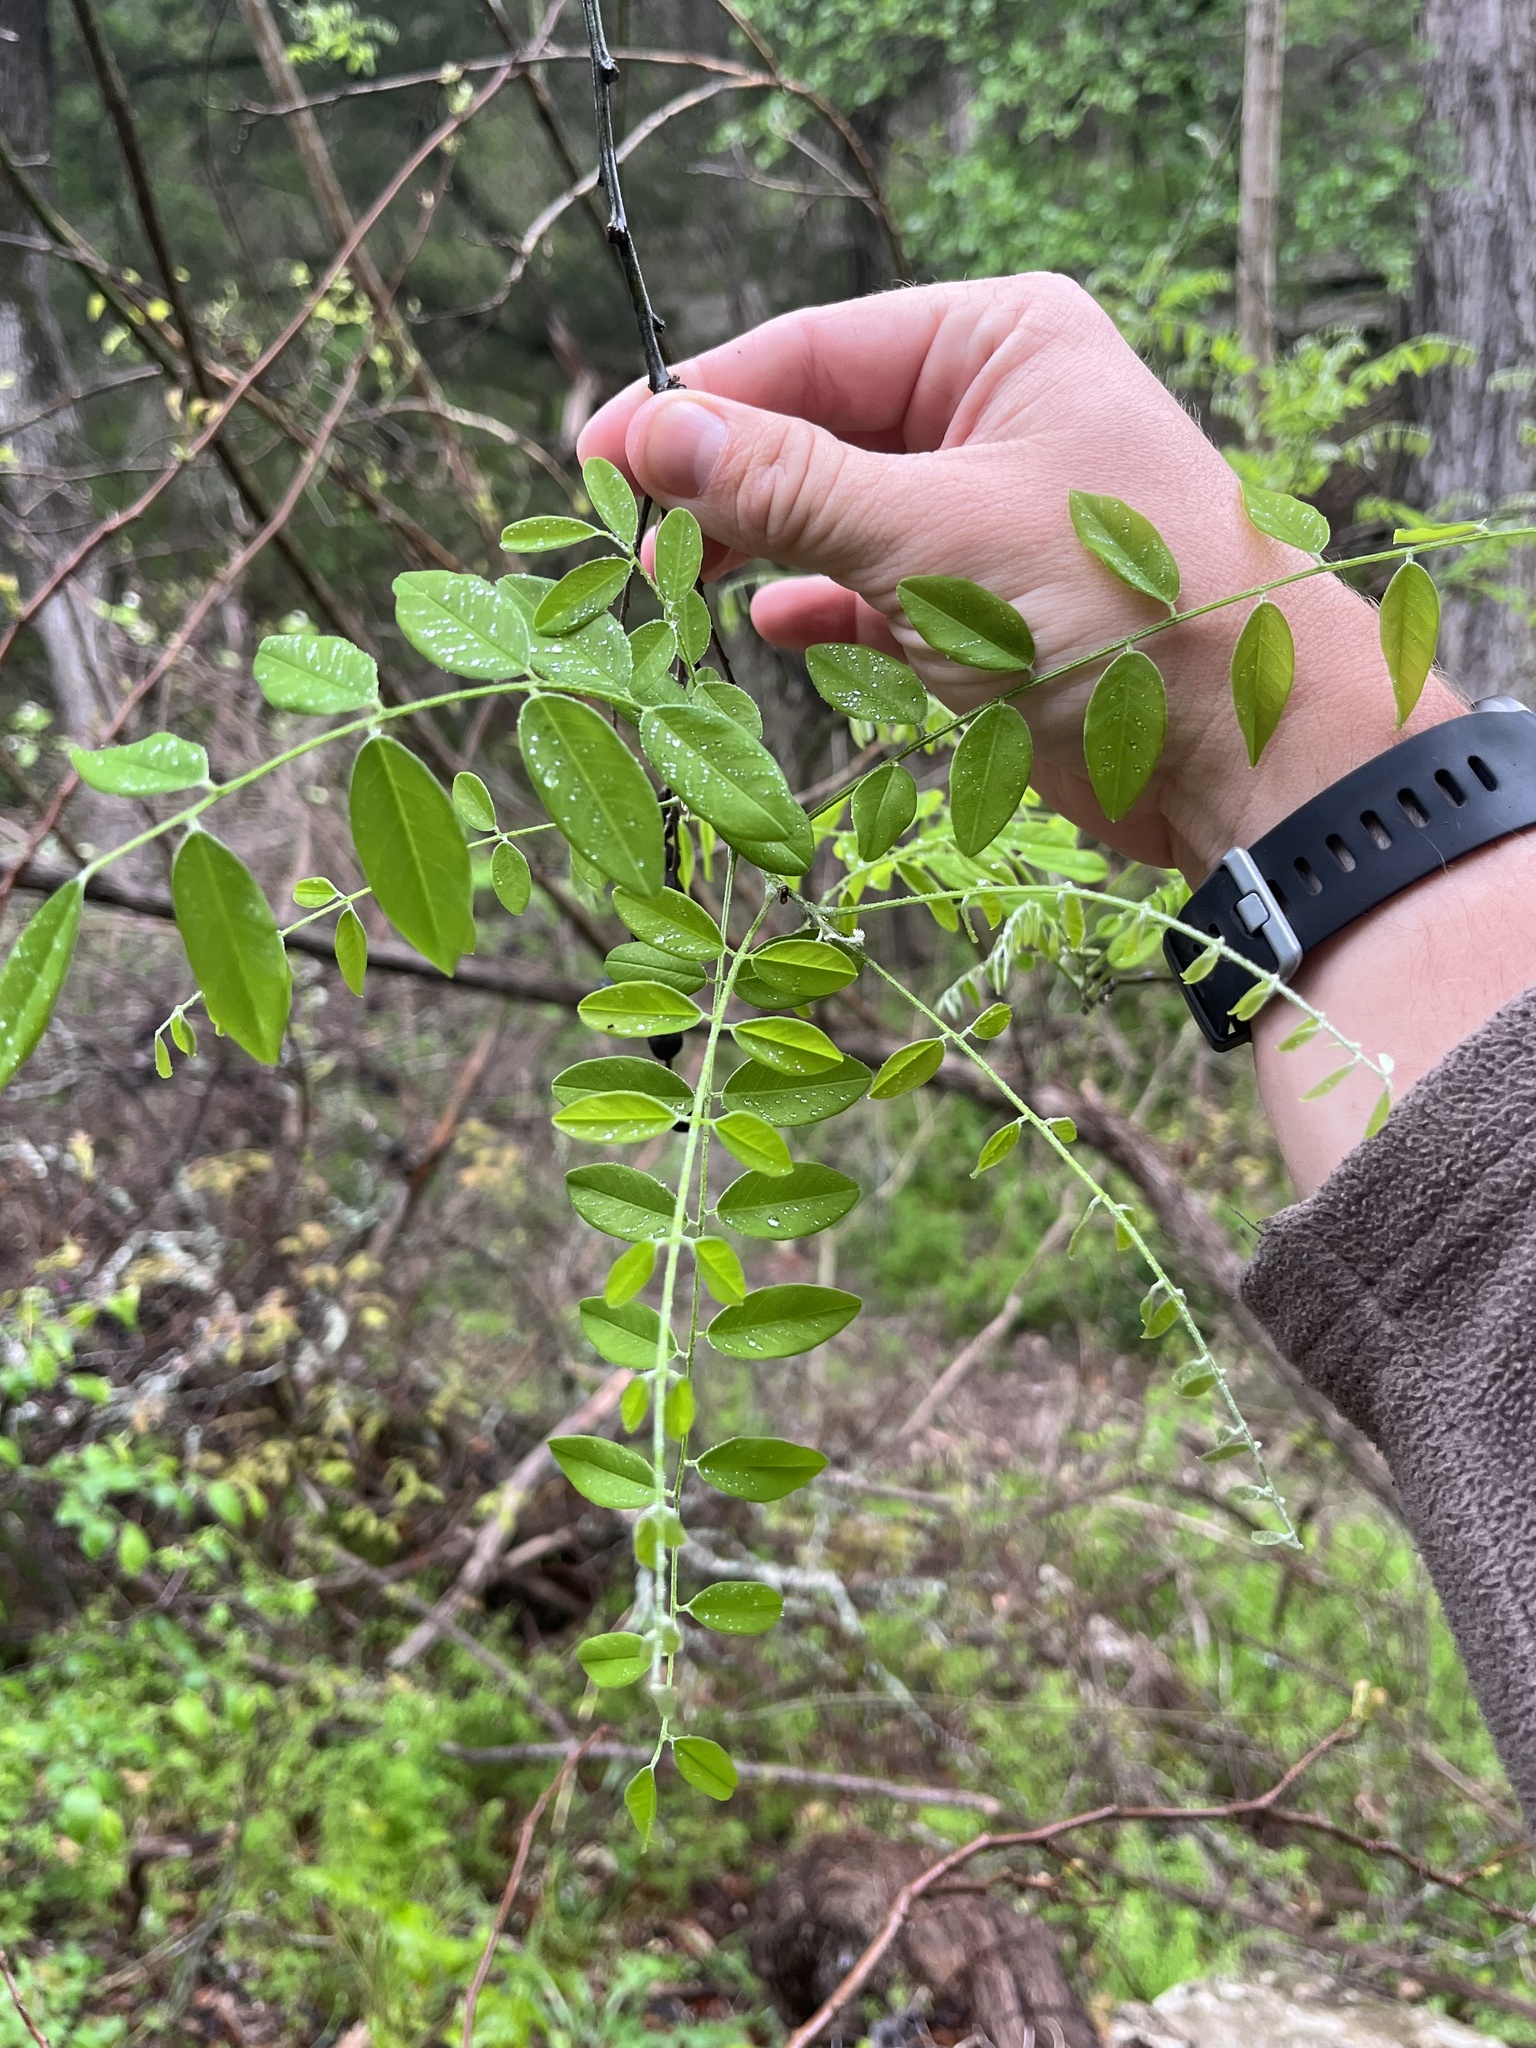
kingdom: Plantae
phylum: Tracheophyta
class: Magnoliopsida
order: Fabales
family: Fabaceae
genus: Styphnolobium
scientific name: Styphnolobium affine
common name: Texas sophora
